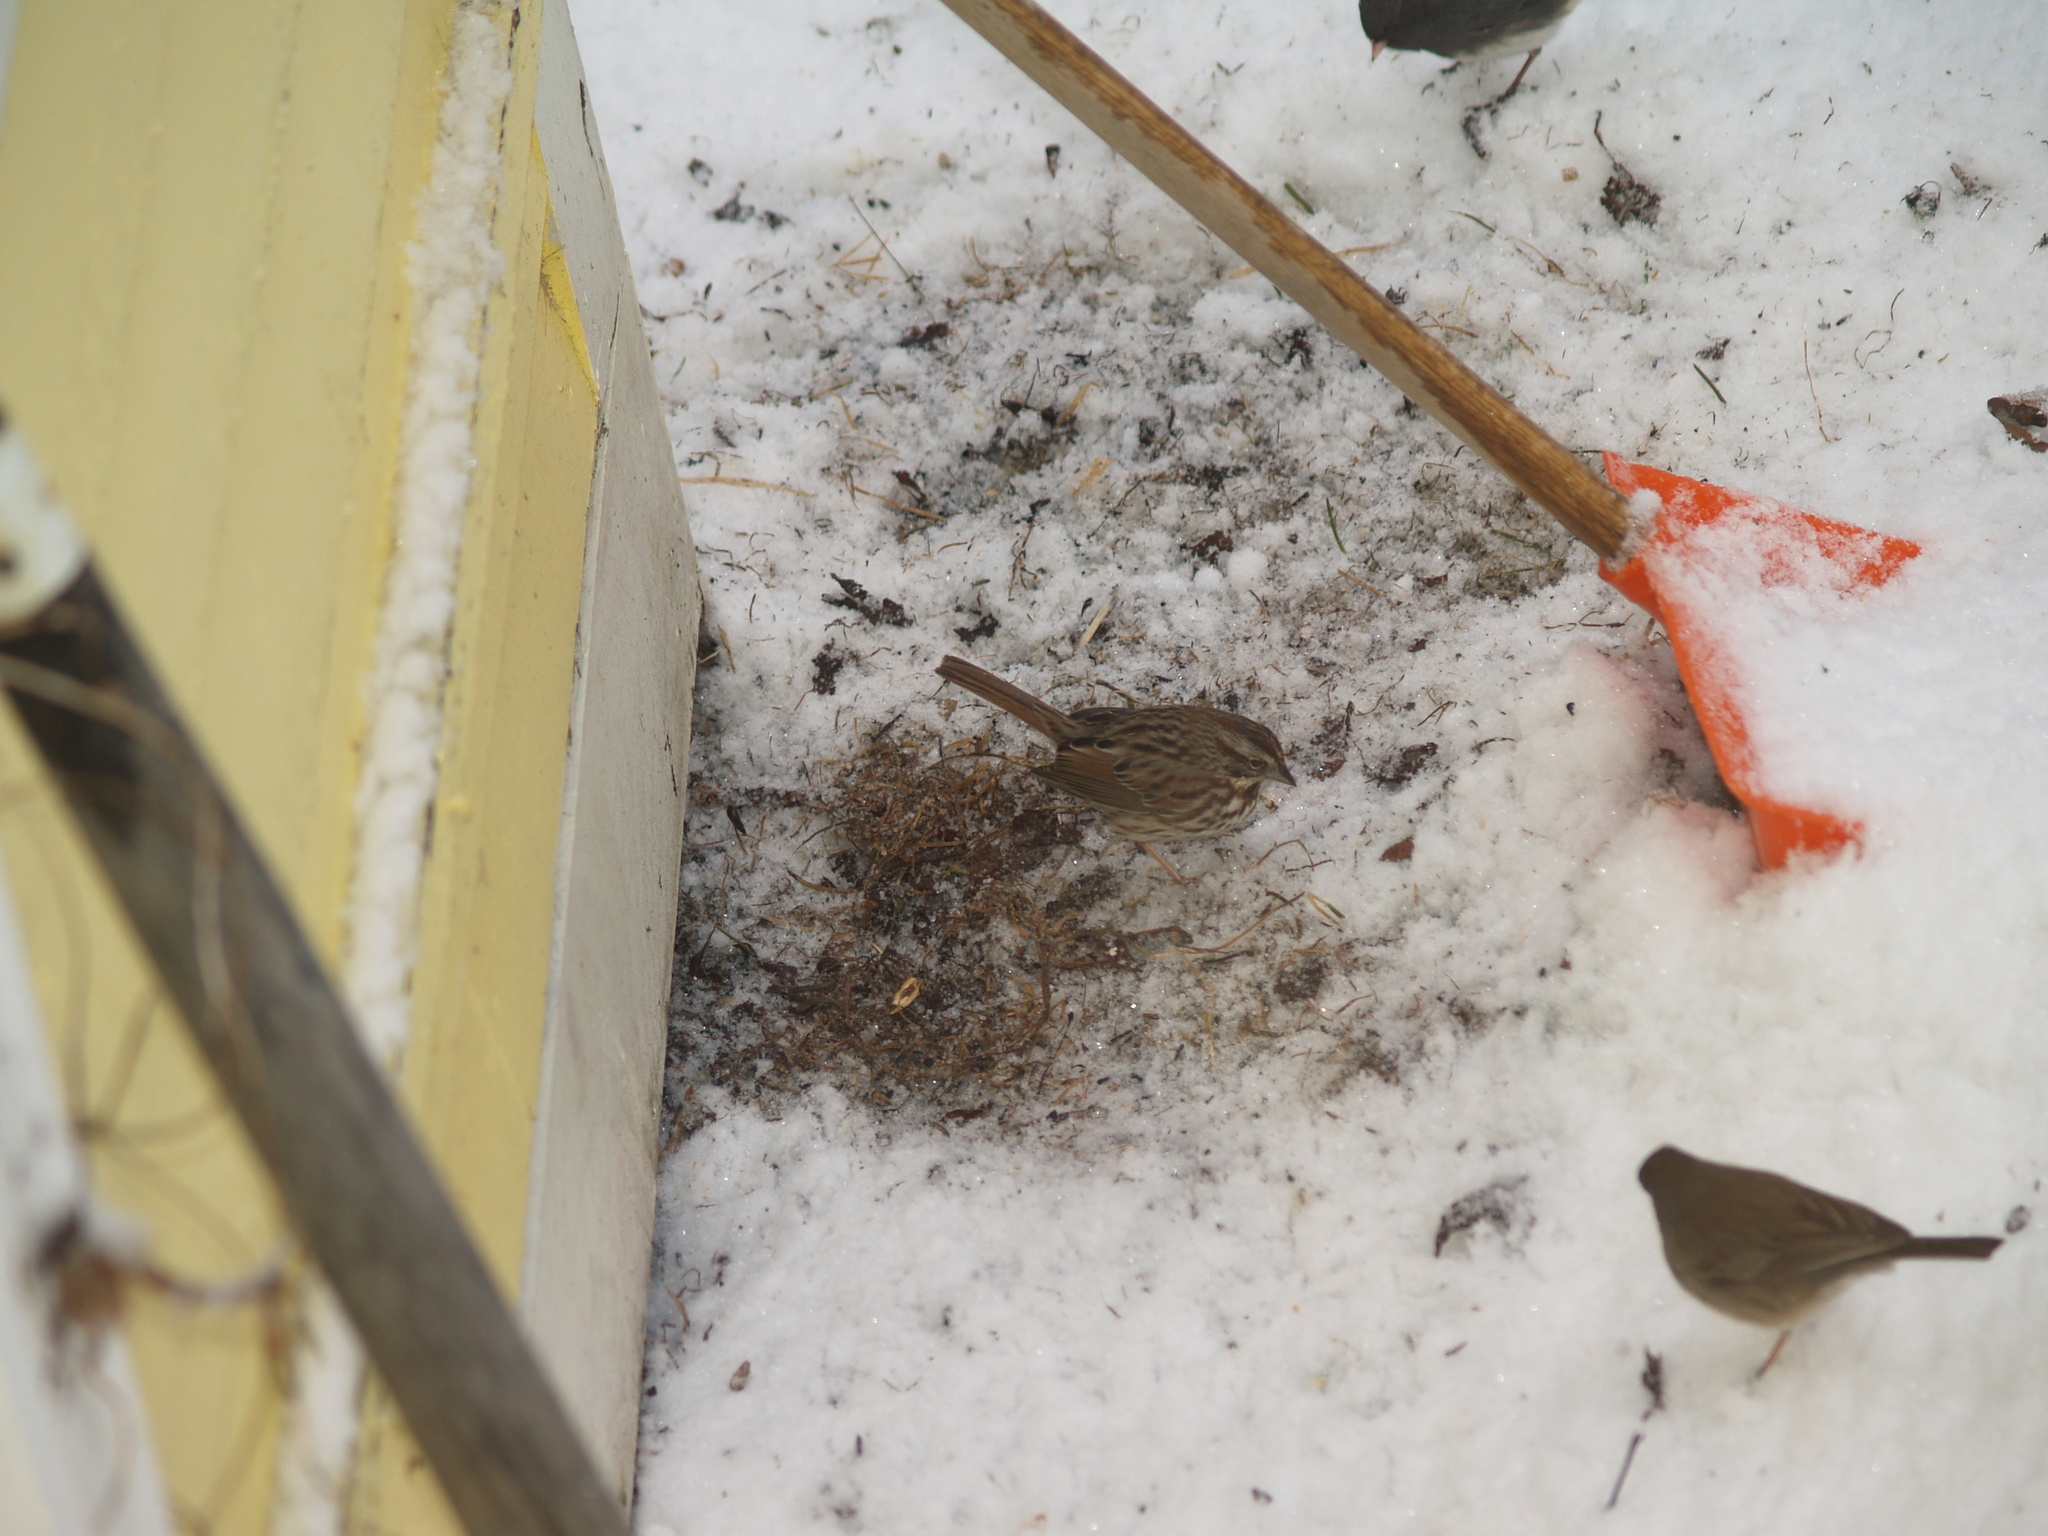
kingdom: Animalia
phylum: Chordata
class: Aves
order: Passeriformes
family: Passerellidae
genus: Melospiza
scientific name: Melospiza melodia
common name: Song sparrow
